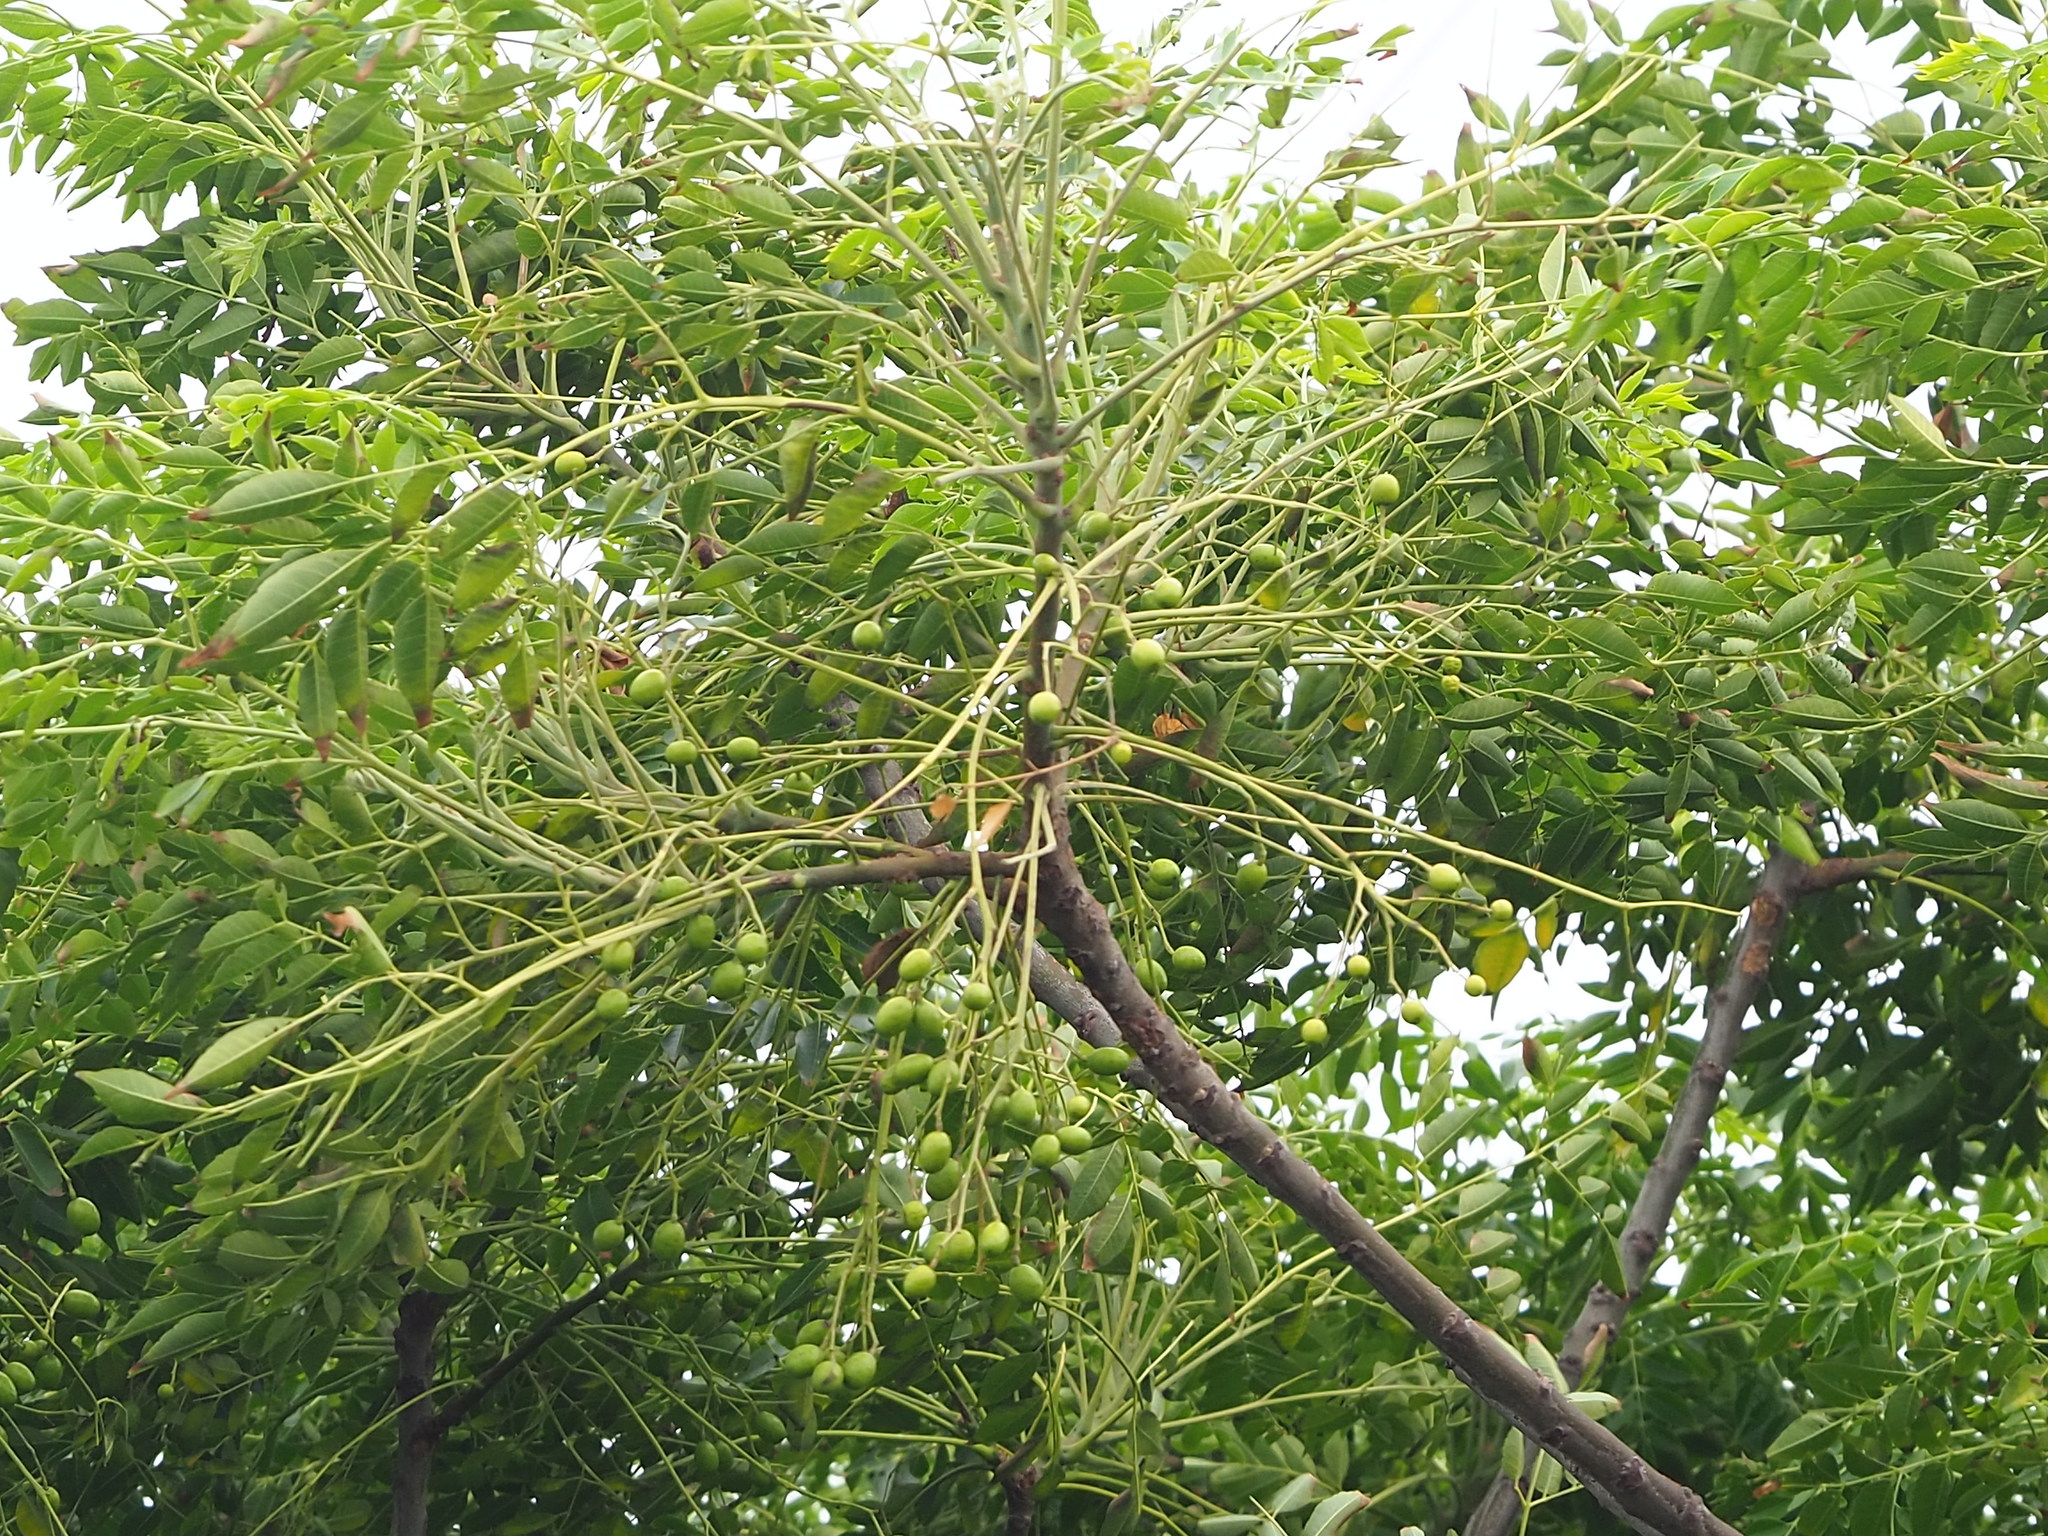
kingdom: Plantae
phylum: Tracheophyta
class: Magnoliopsida
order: Sapindales
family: Meliaceae
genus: Melia
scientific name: Melia azedarach
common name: Chinaberrytree
